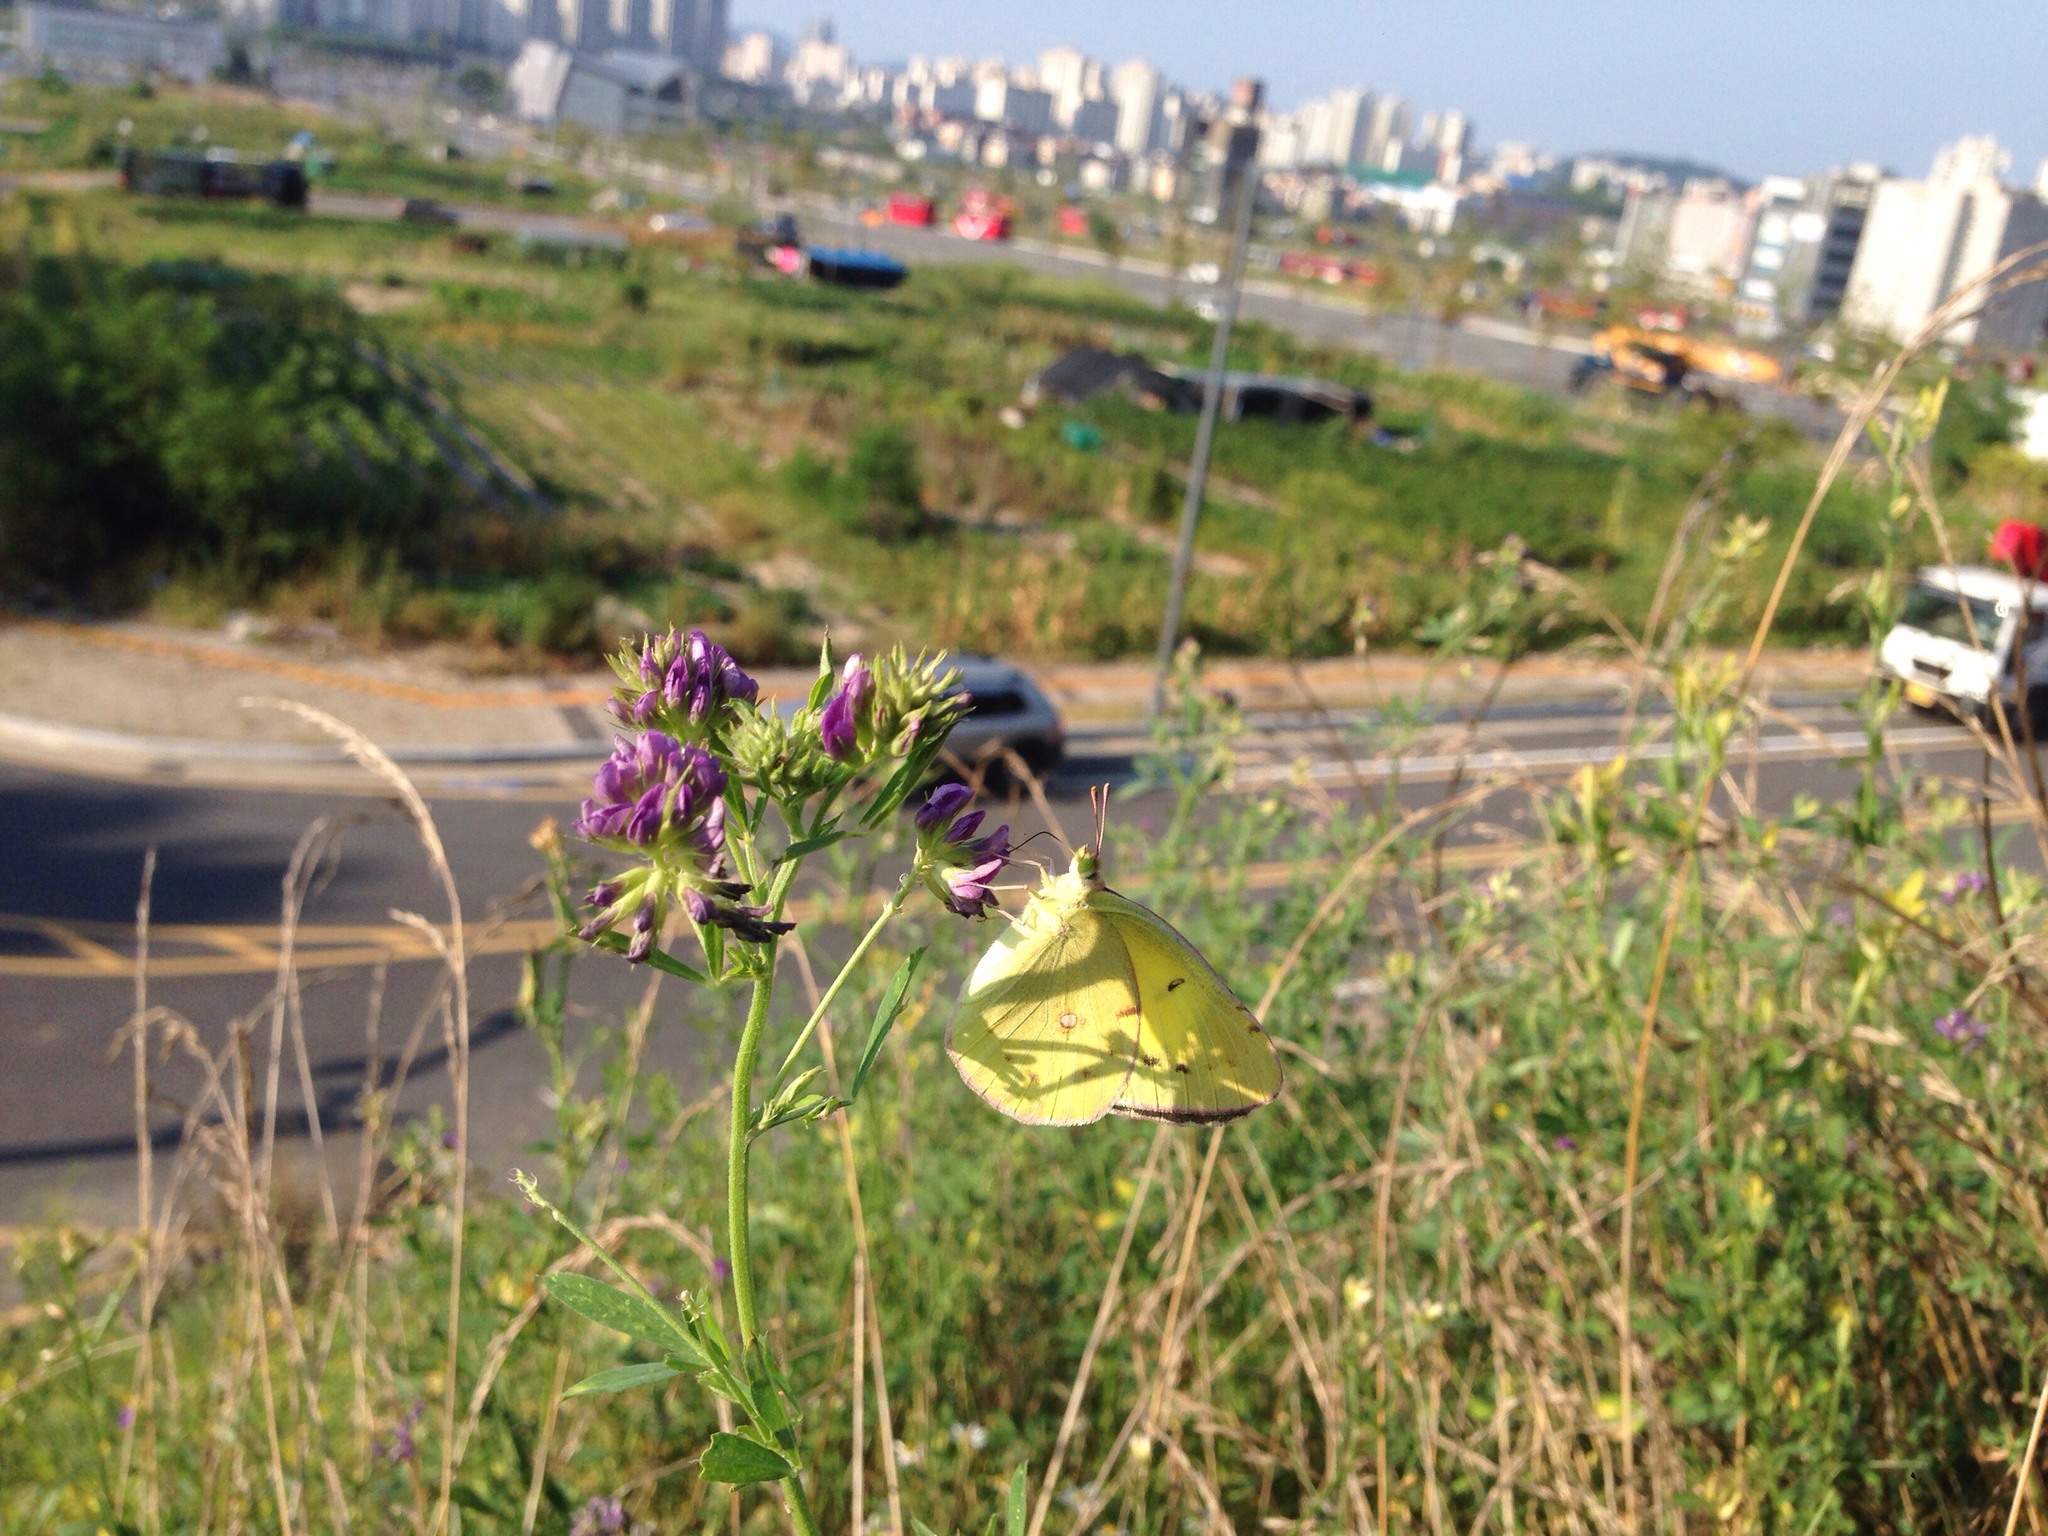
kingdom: Animalia
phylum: Arthropoda
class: Insecta
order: Lepidoptera
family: Pieridae
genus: Colias
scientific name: Colias poliographus
